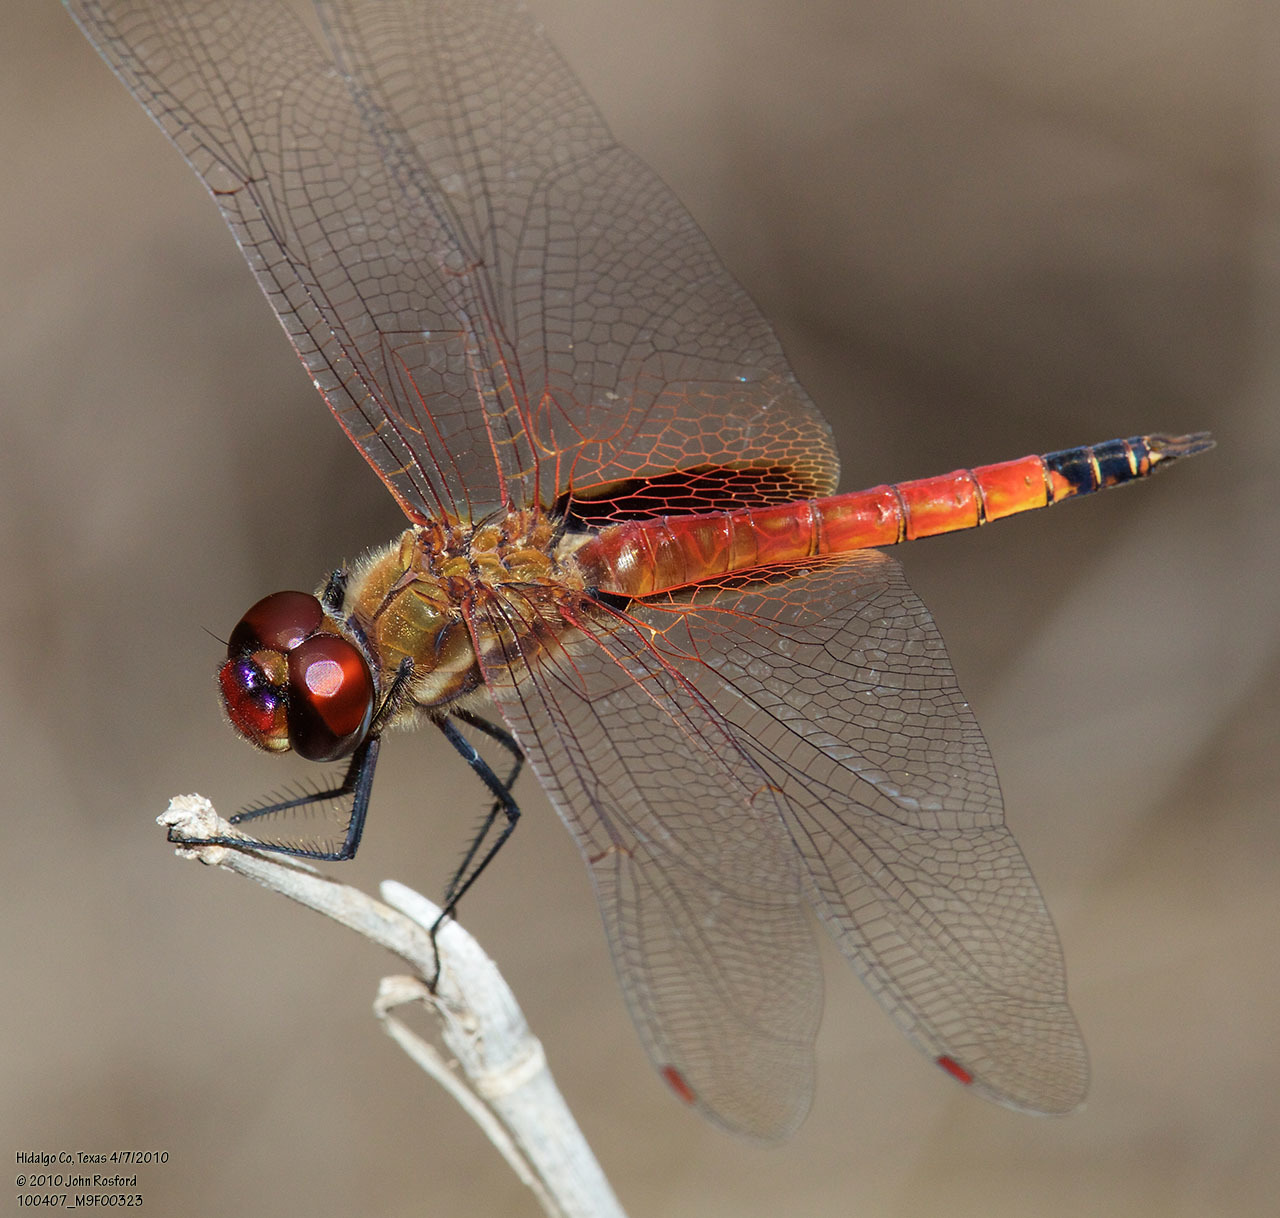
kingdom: Animalia
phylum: Arthropoda
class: Insecta
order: Odonata
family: Libellulidae
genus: Tramea
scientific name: Tramea darwini
